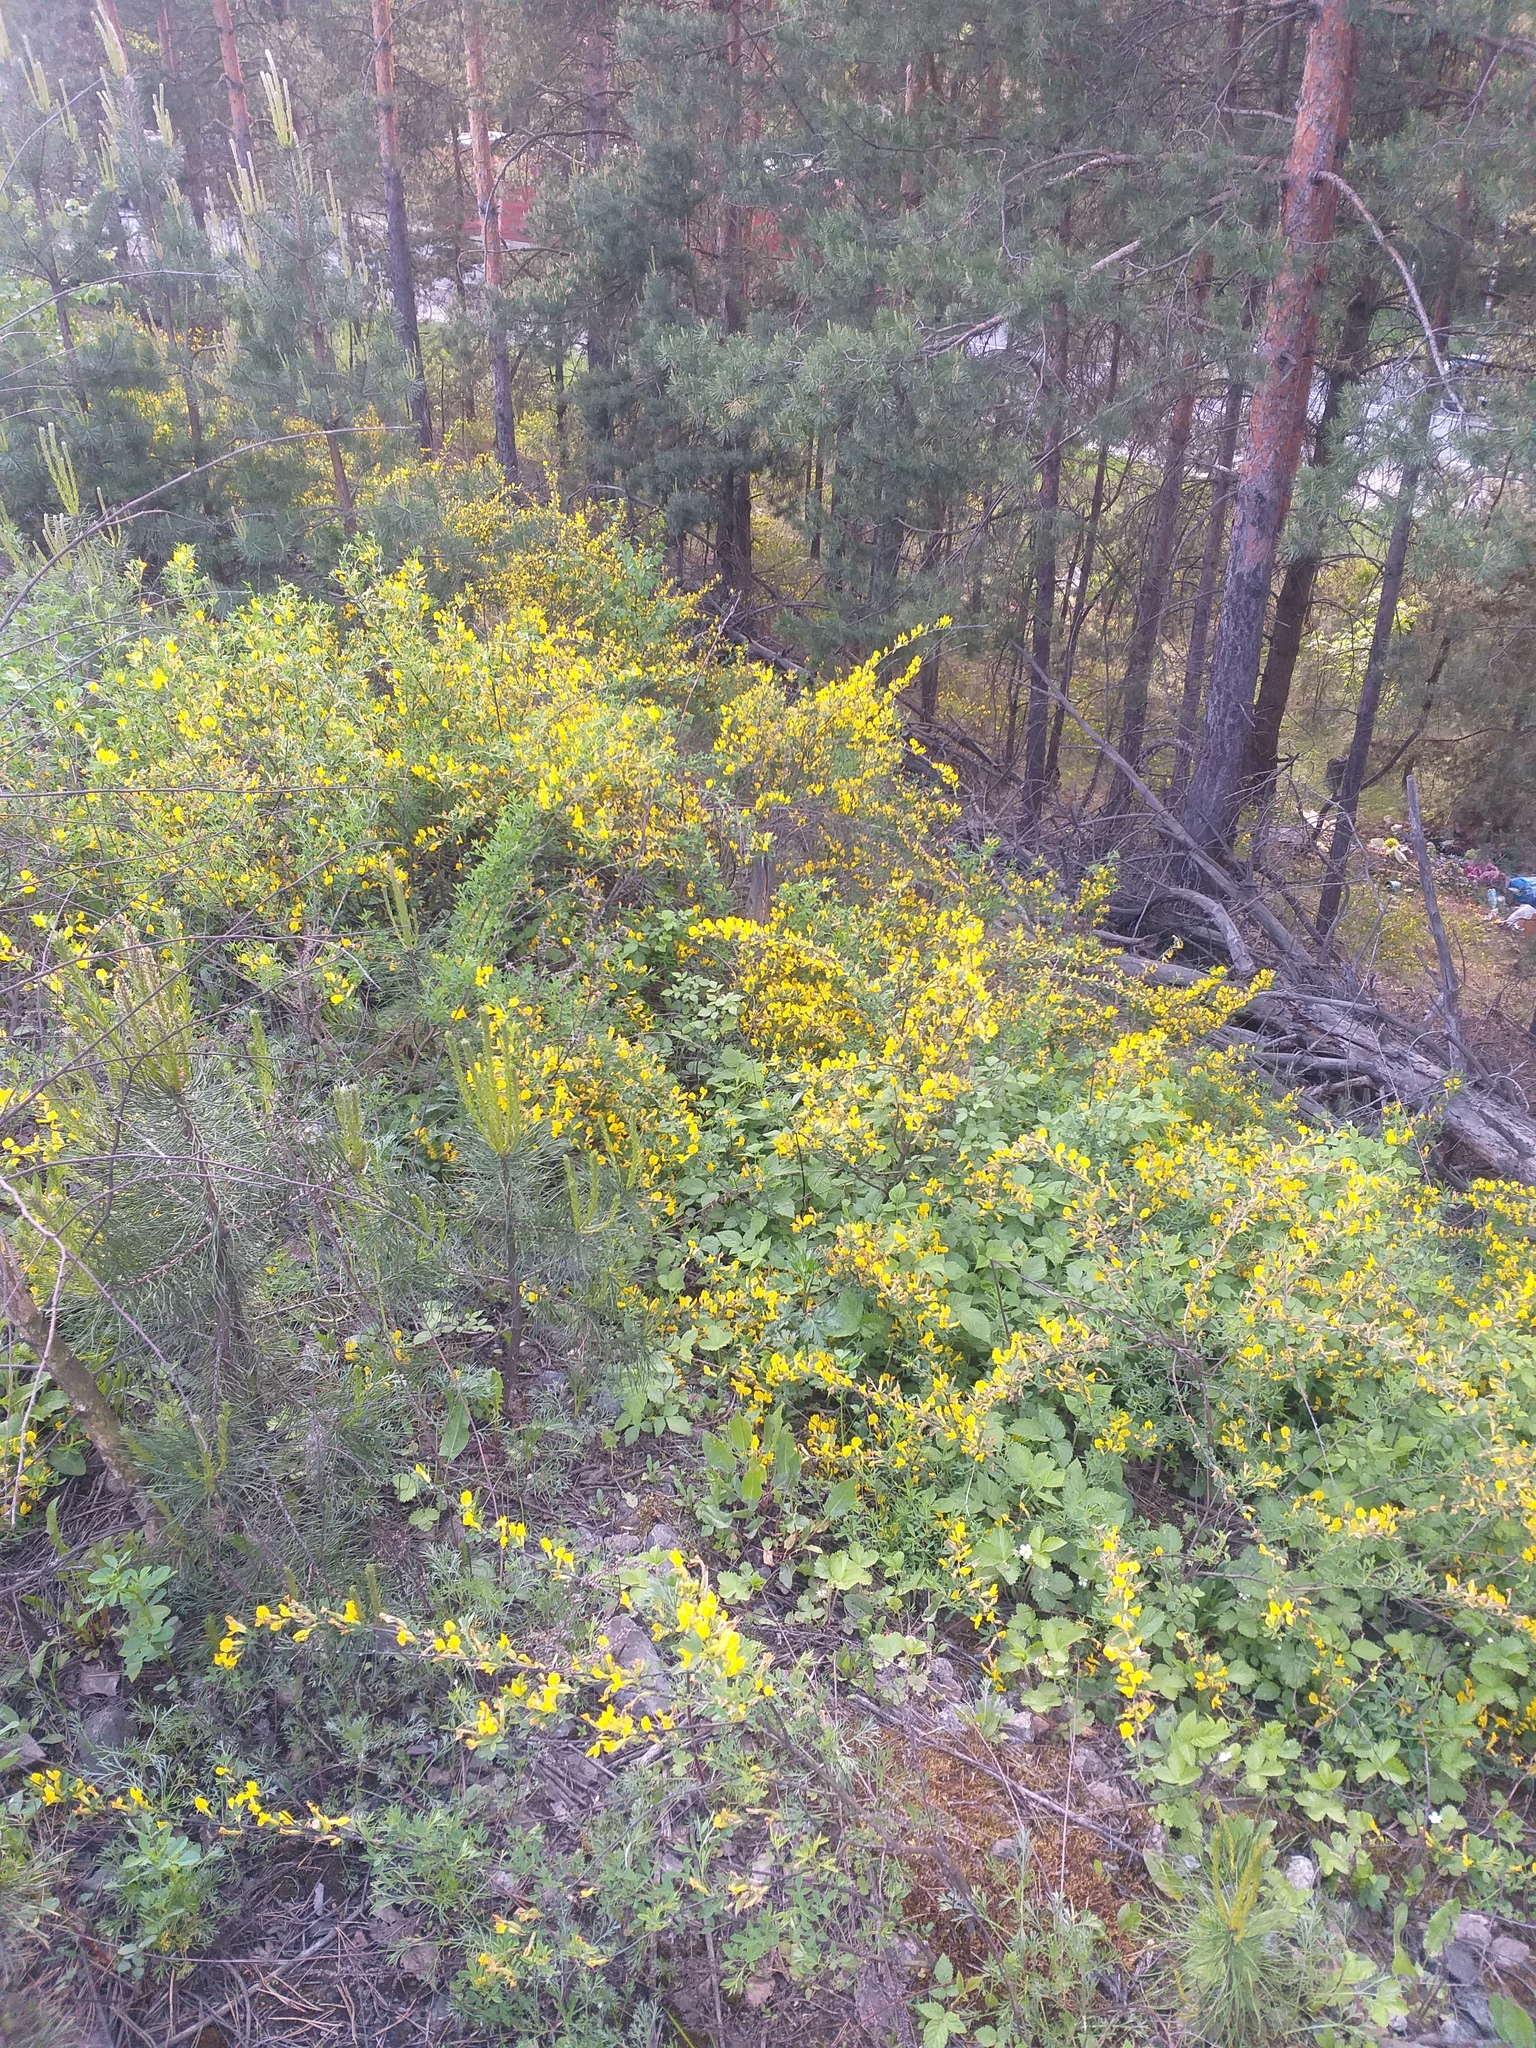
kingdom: Plantae
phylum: Tracheophyta
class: Magnoliopsida
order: Fabales
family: Fabaceae
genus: Chamaecytisus
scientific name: Chamaecytisus ruthenicus
